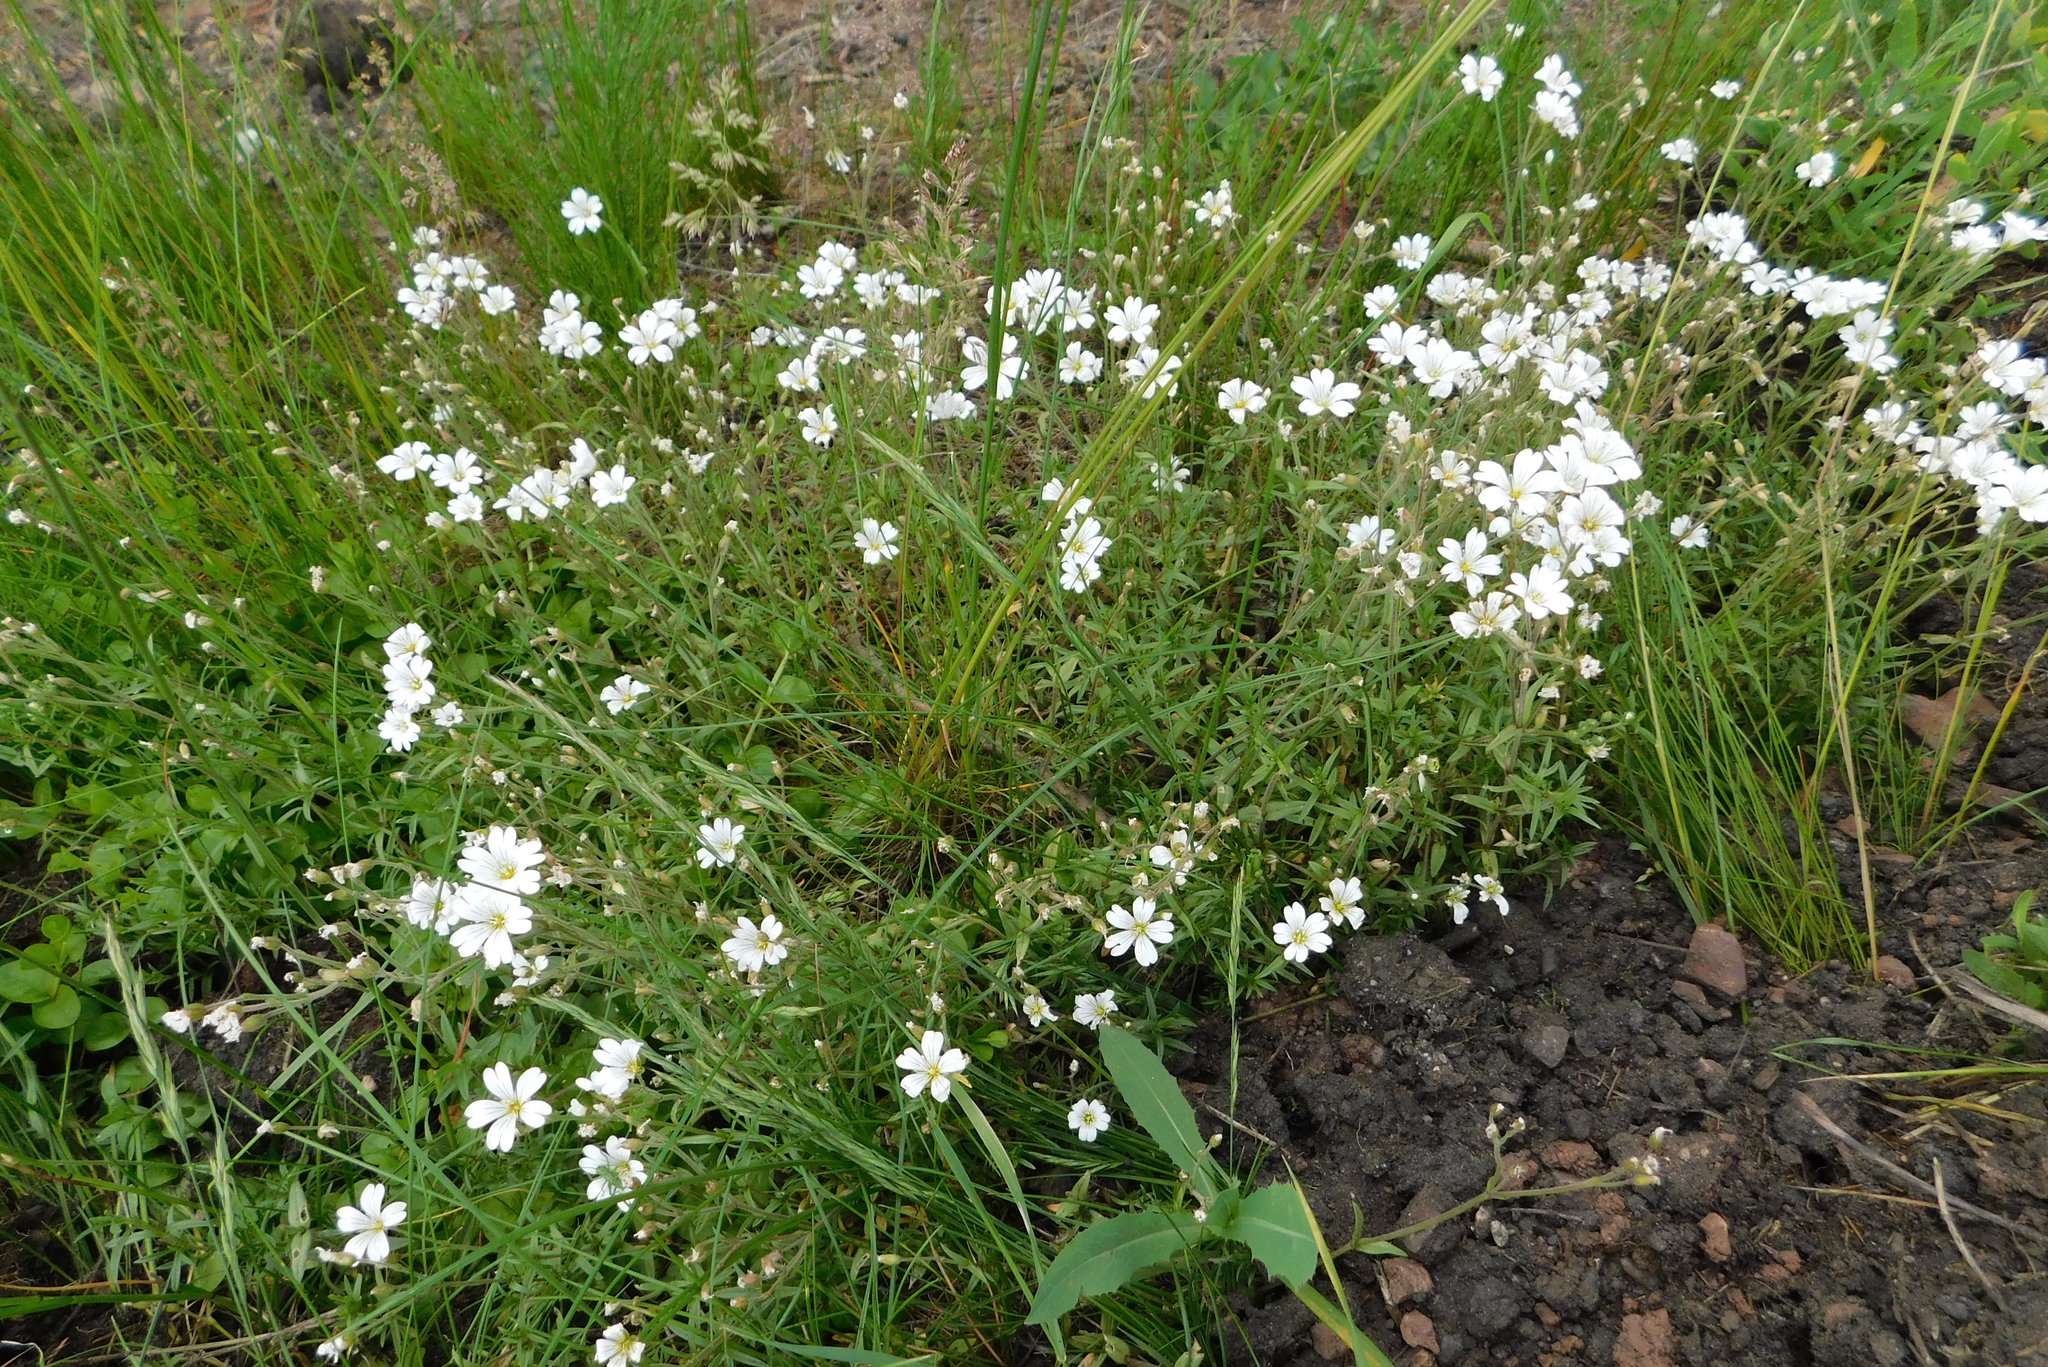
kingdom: Plantae
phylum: Tracheophyta
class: Magnoliopsida
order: Caryophyllales
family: Caryophyllaceae
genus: Cerastium
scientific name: Cerastium arvense
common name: Field mouse-ear
